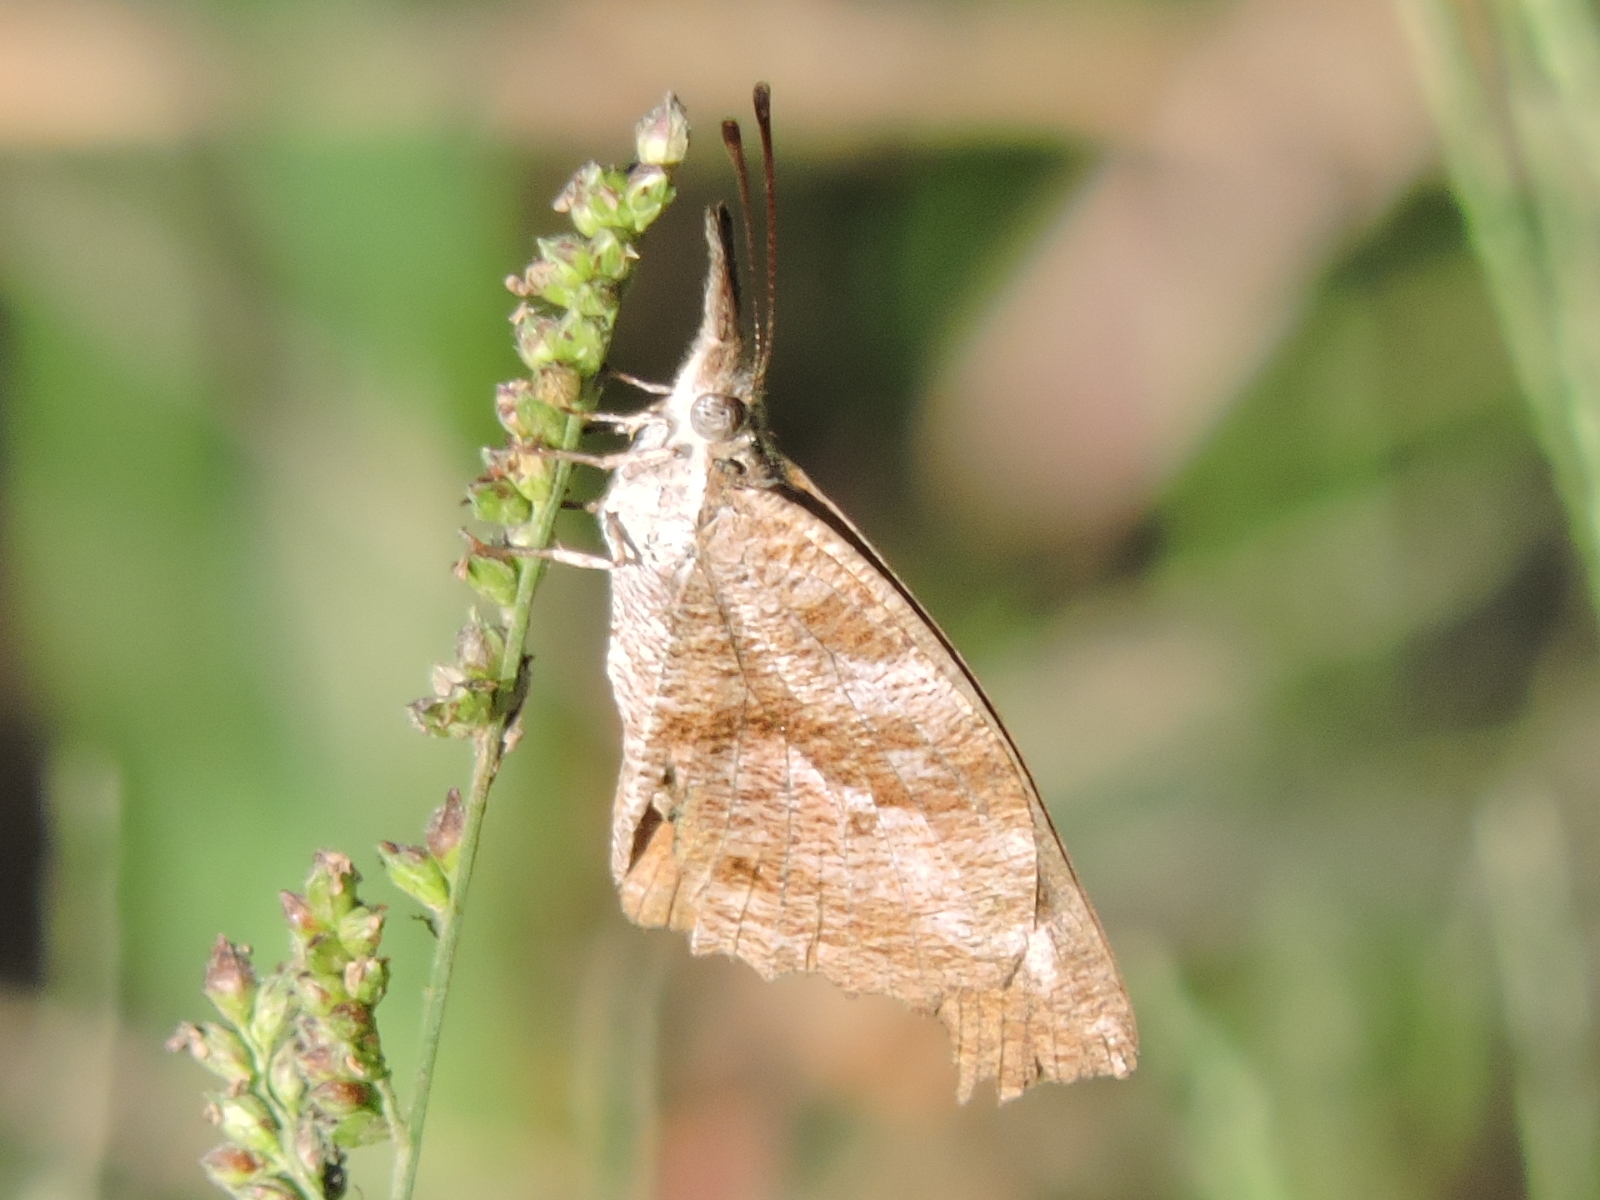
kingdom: Animalia
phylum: Arthropoda
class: Insecta
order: Lepidoptera
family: Nymphalidae
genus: Libytheana
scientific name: Libytheana carinenta
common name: American snout
